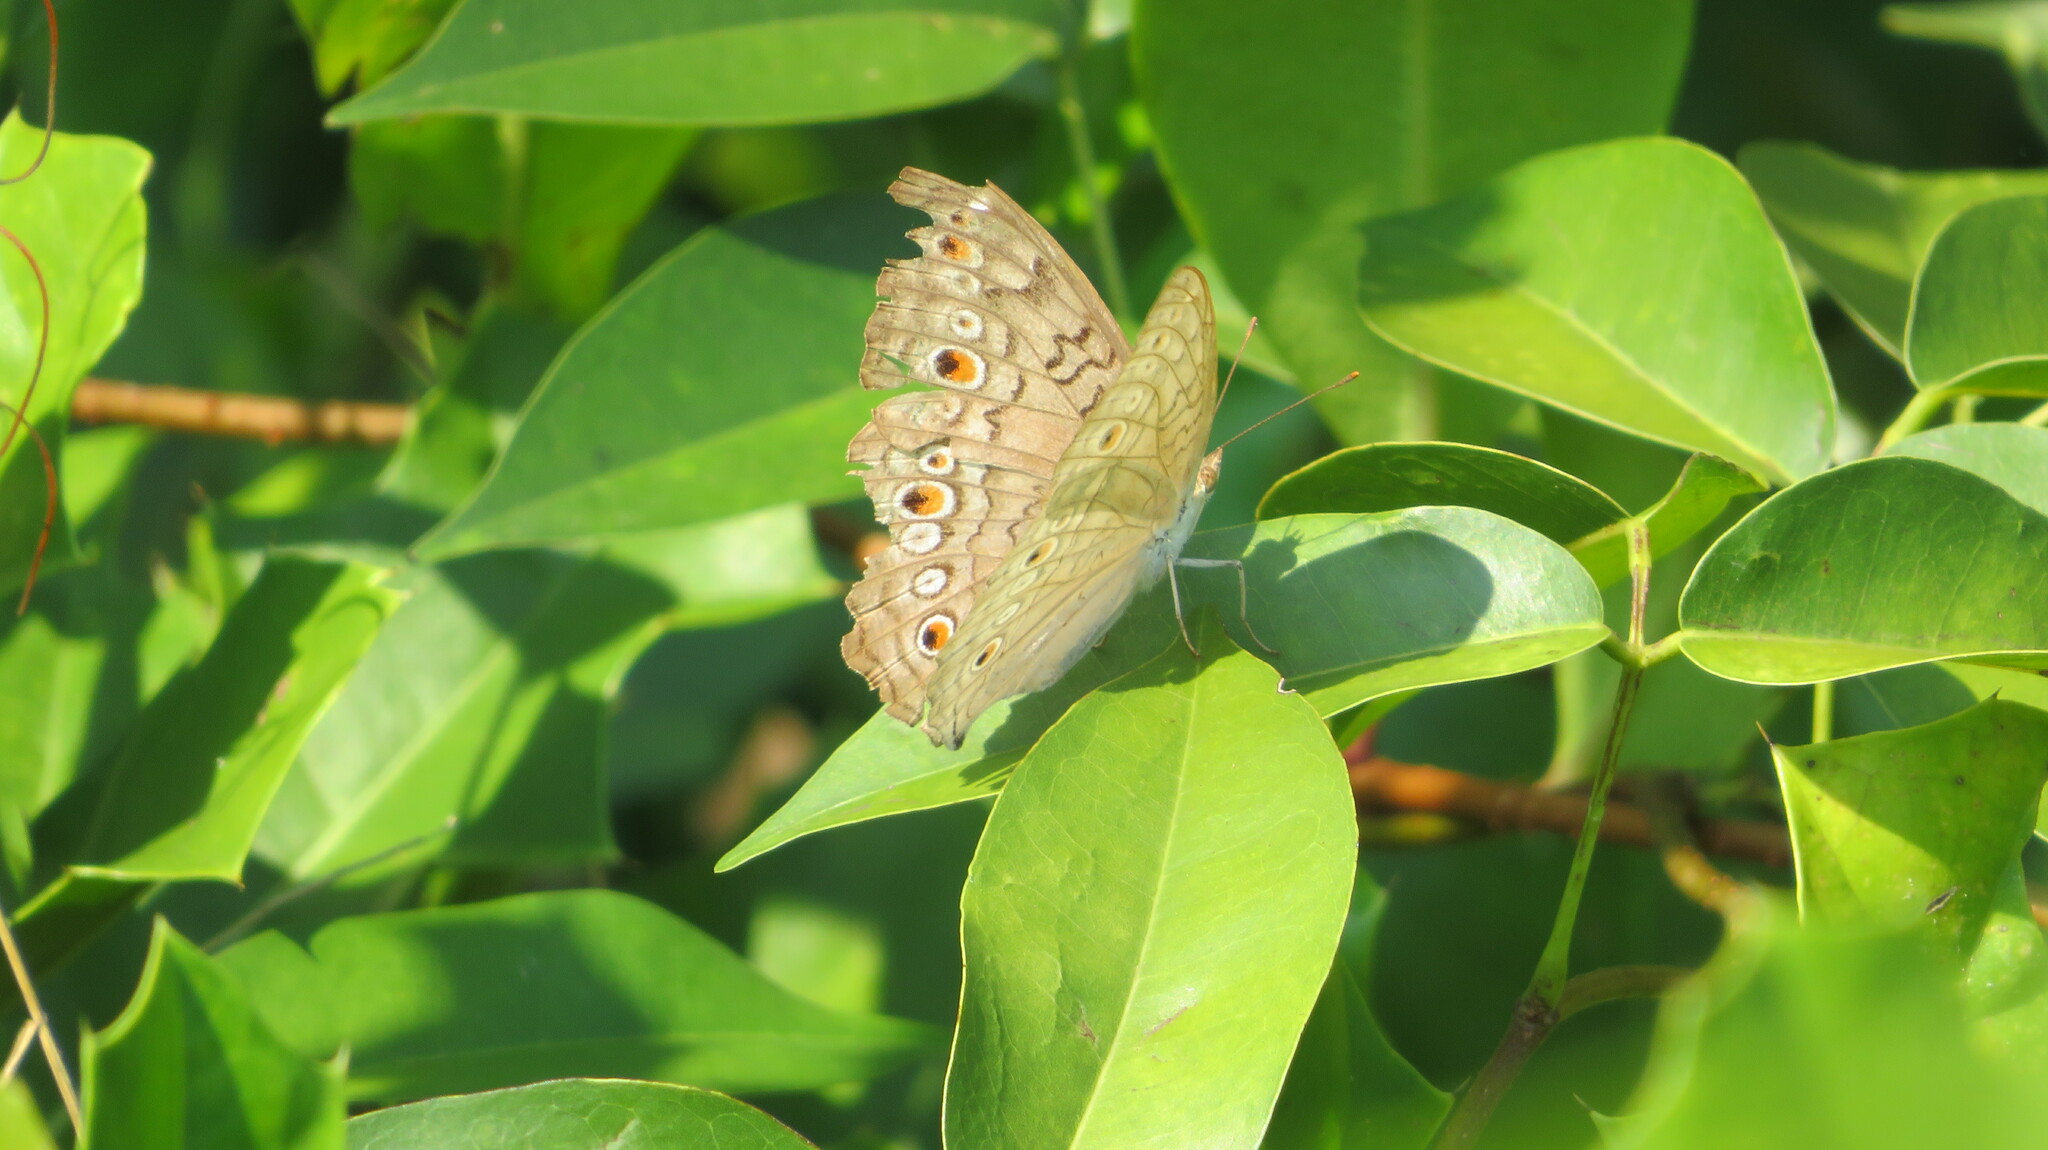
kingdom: Animalia
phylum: Arthropoda
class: Insecta
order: Lepidoptera
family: Nymphalidae
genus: Junonia
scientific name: Junonia atlites
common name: Grey pansy
